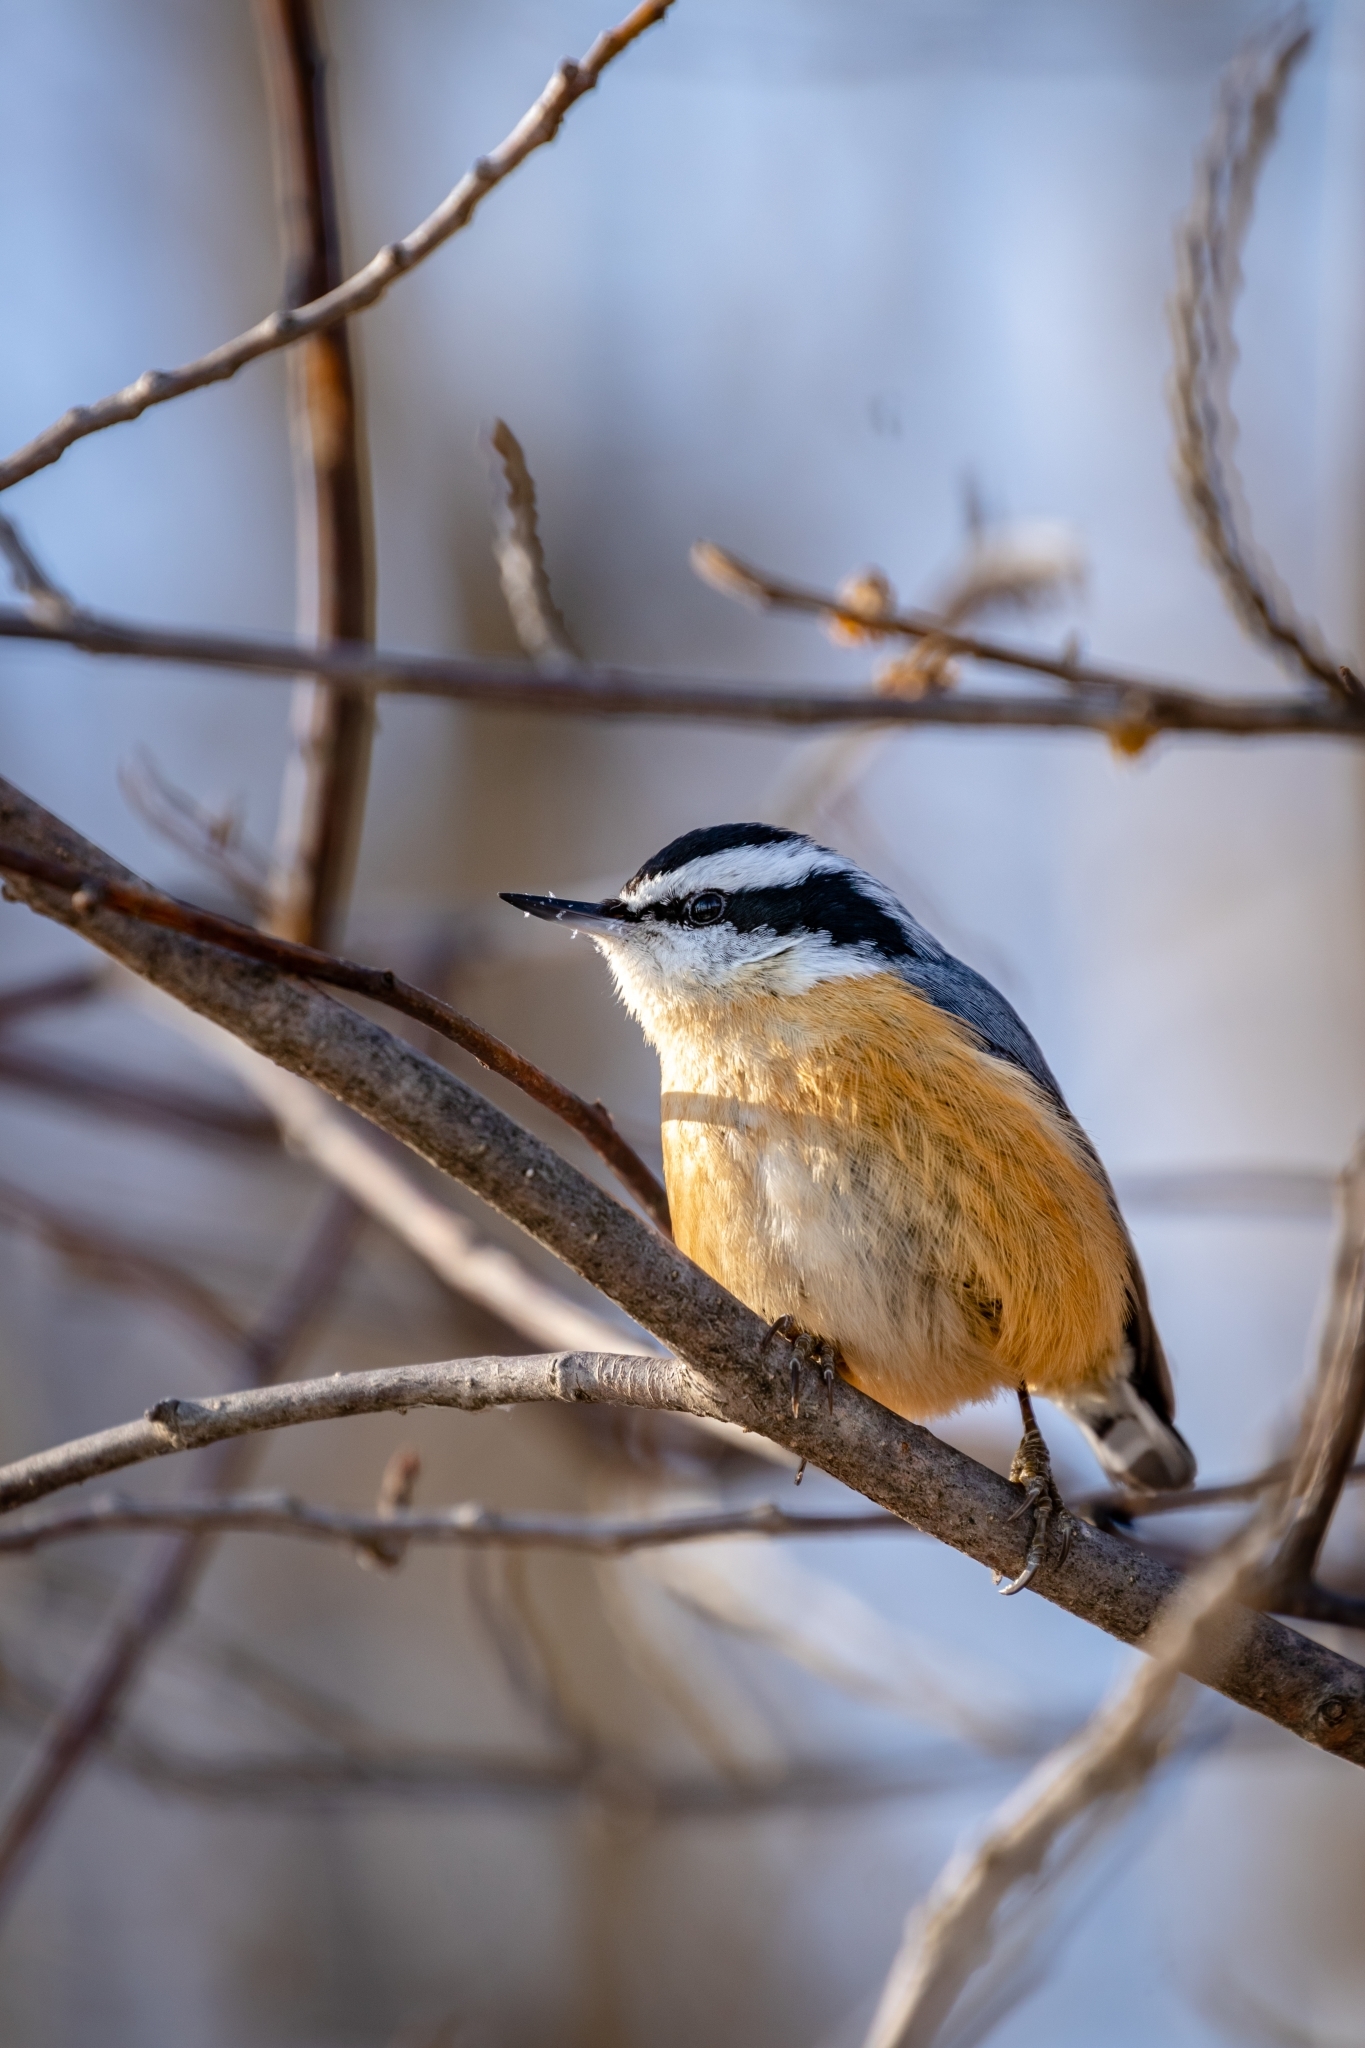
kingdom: Animalia
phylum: Chordata
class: Aves
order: Passeriformes
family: Sittidae
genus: Sitta
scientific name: Sitta canadensis
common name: Red-breasted nuthatch
